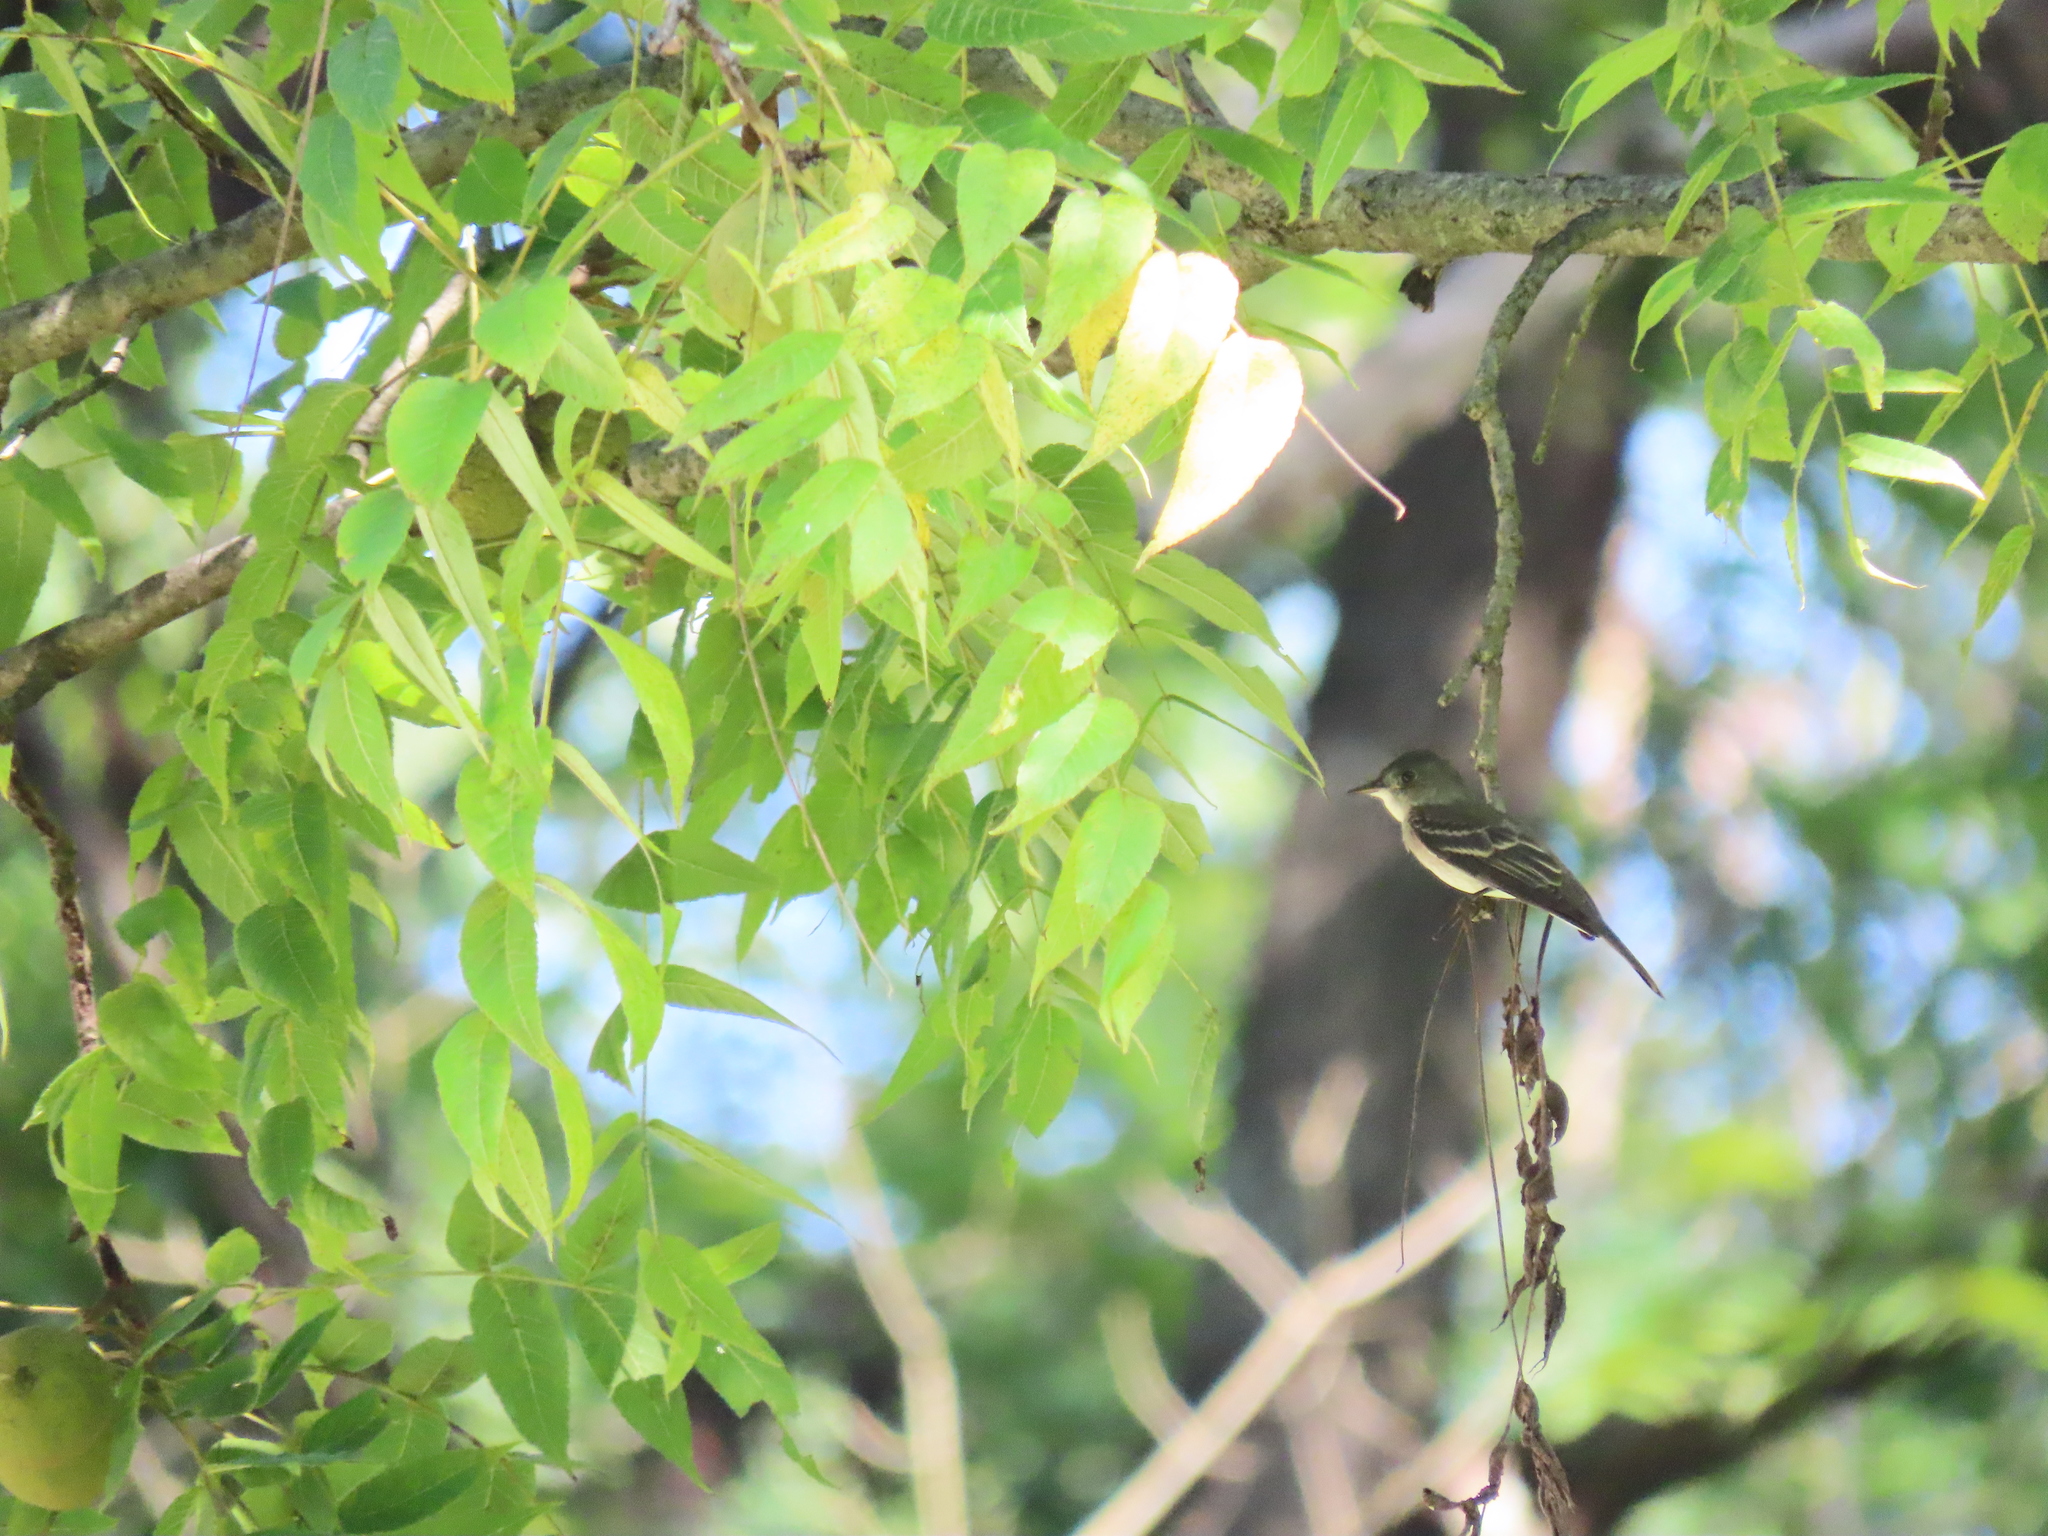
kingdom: Animalia
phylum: Chordata
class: Aves
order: Passeriformes
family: Tyrannidae
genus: Sayornis
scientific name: Sayornis phoebe
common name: Eastern phoebe
